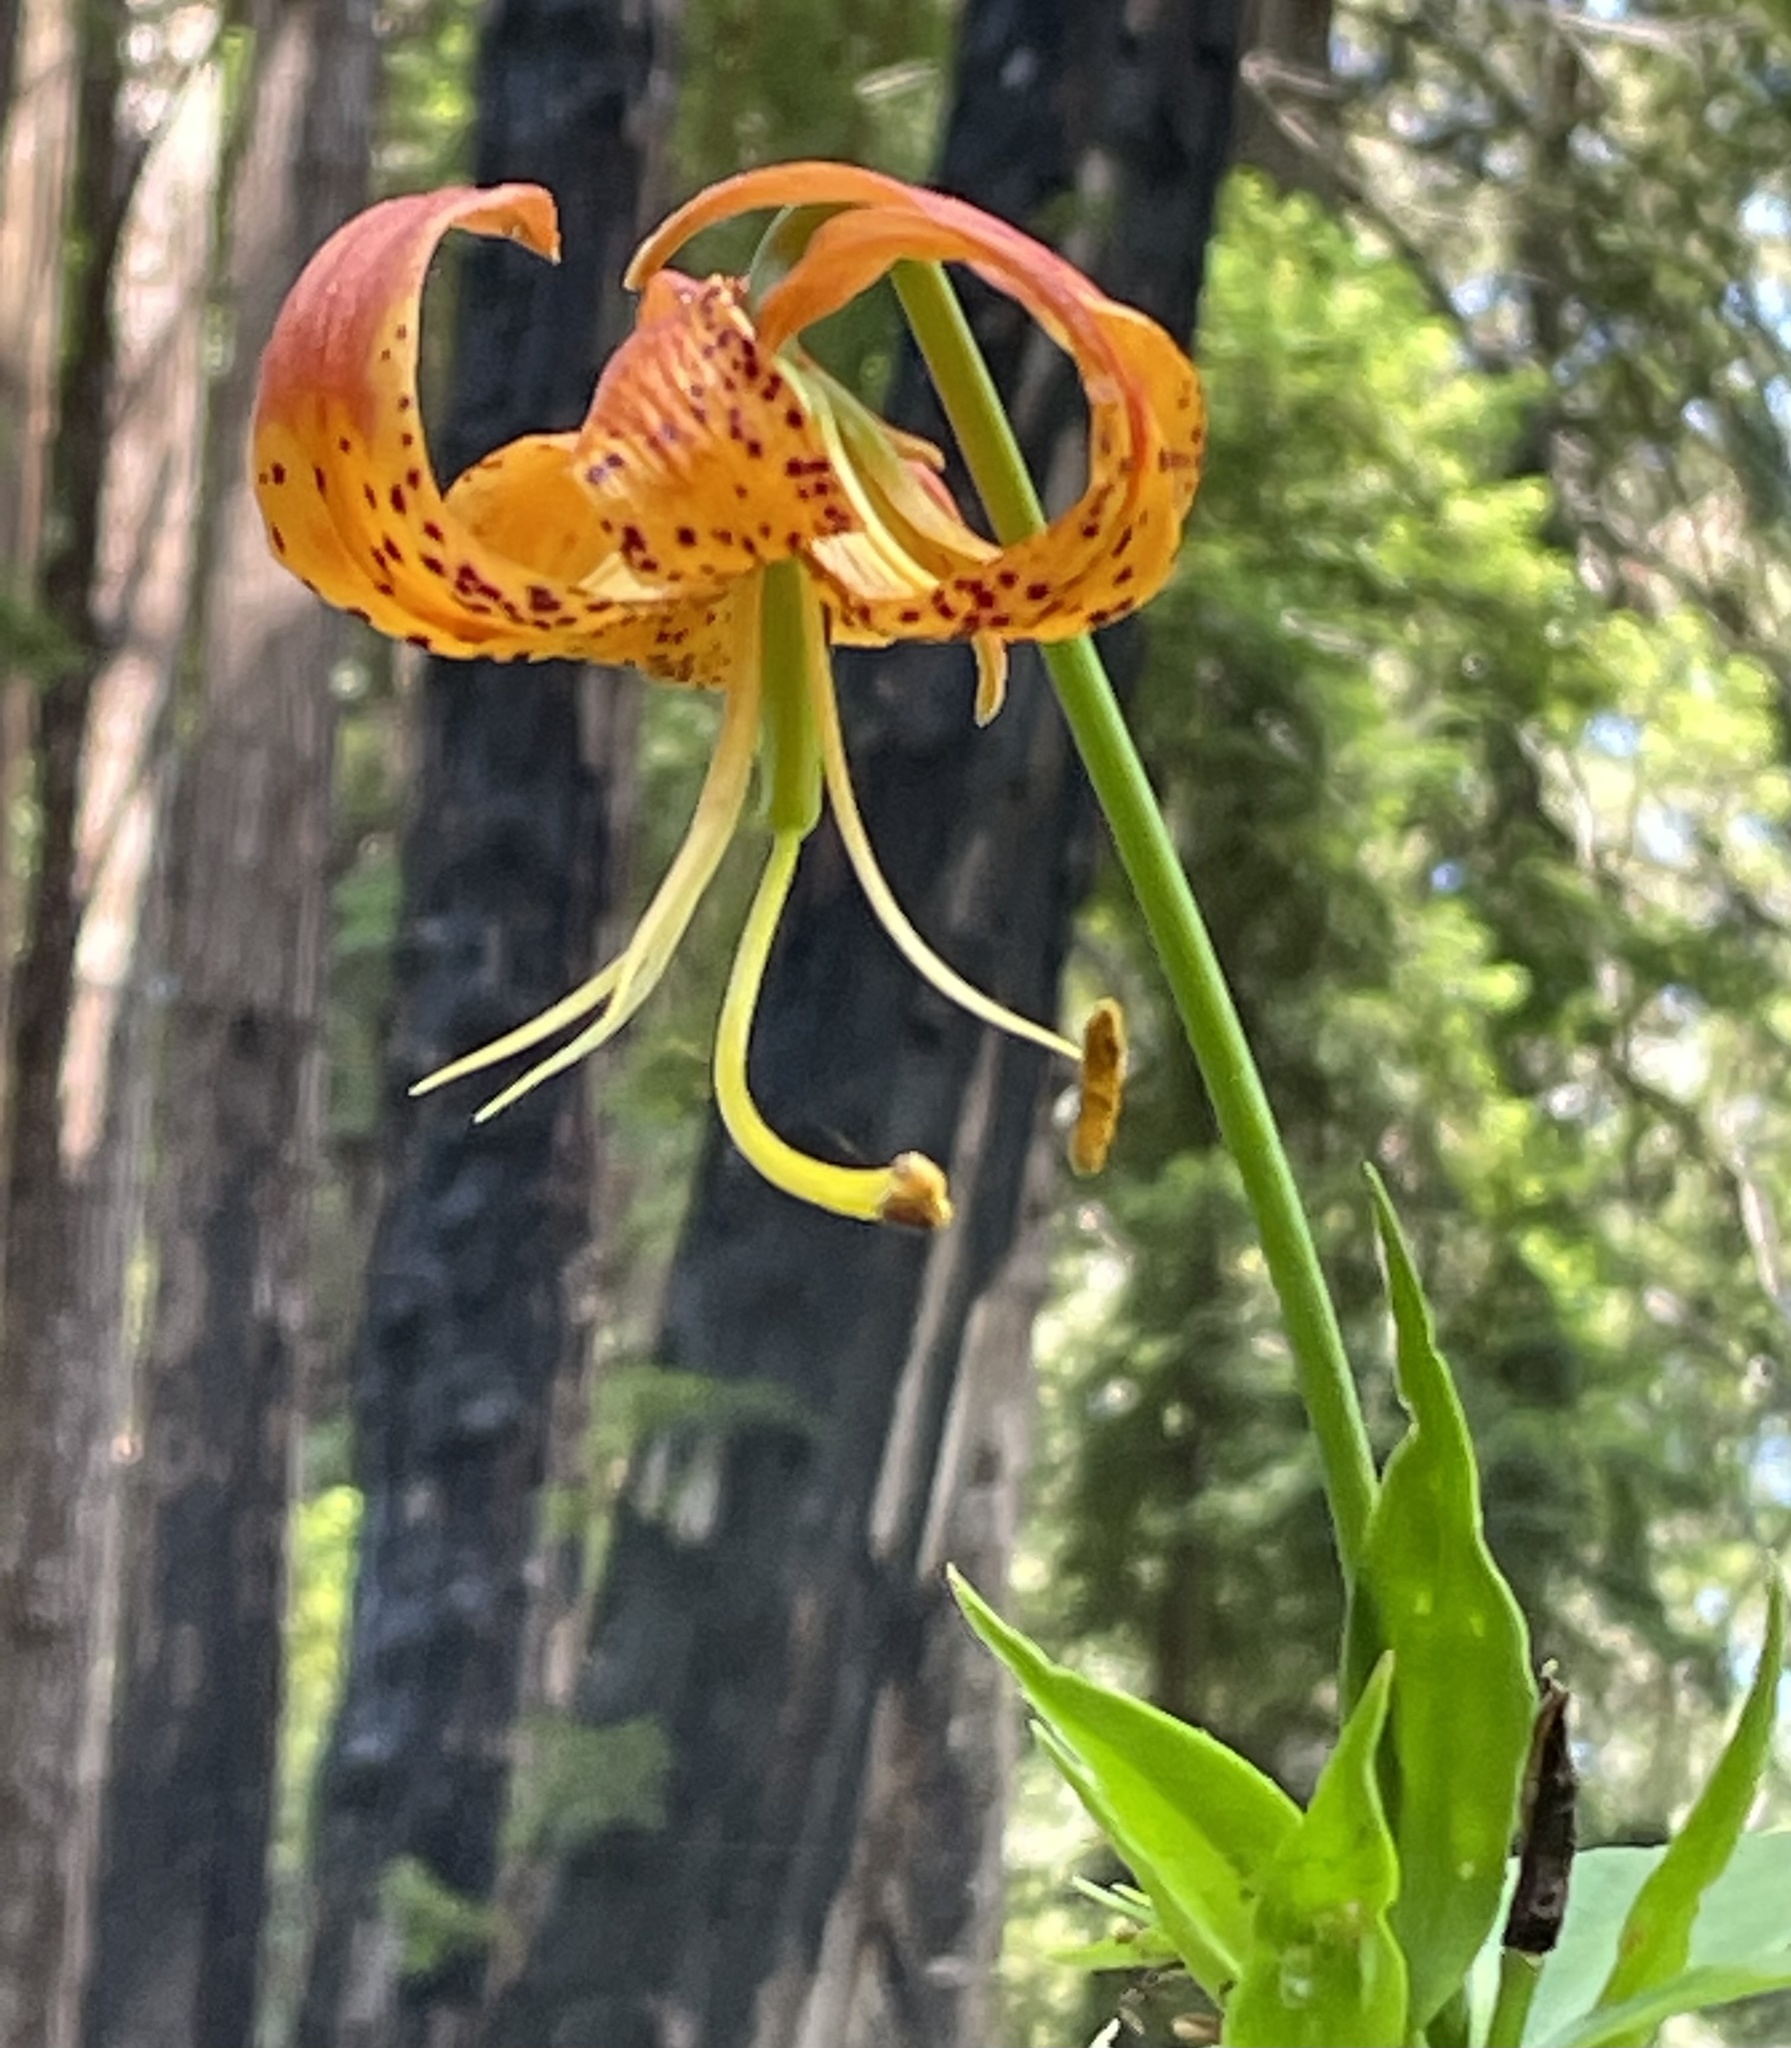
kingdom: Plantae
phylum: Tracheophyta
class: Liliopsida
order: Liliales
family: Liliaceae
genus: Lilium
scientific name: Lilium pardalinum
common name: Panther lily
